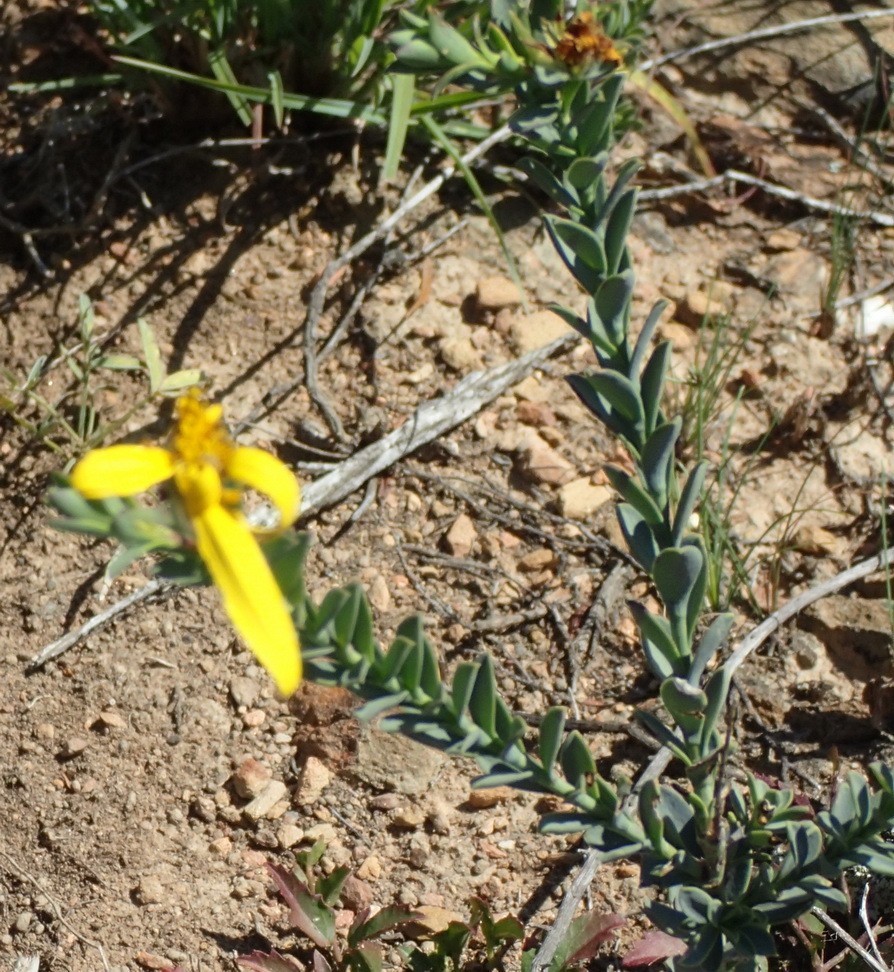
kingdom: Plantae
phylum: Tracheophyta
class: Magnoliopsida
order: Asterales
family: Asteraceae
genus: Osteospermum
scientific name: Osteospermum polygaloides
